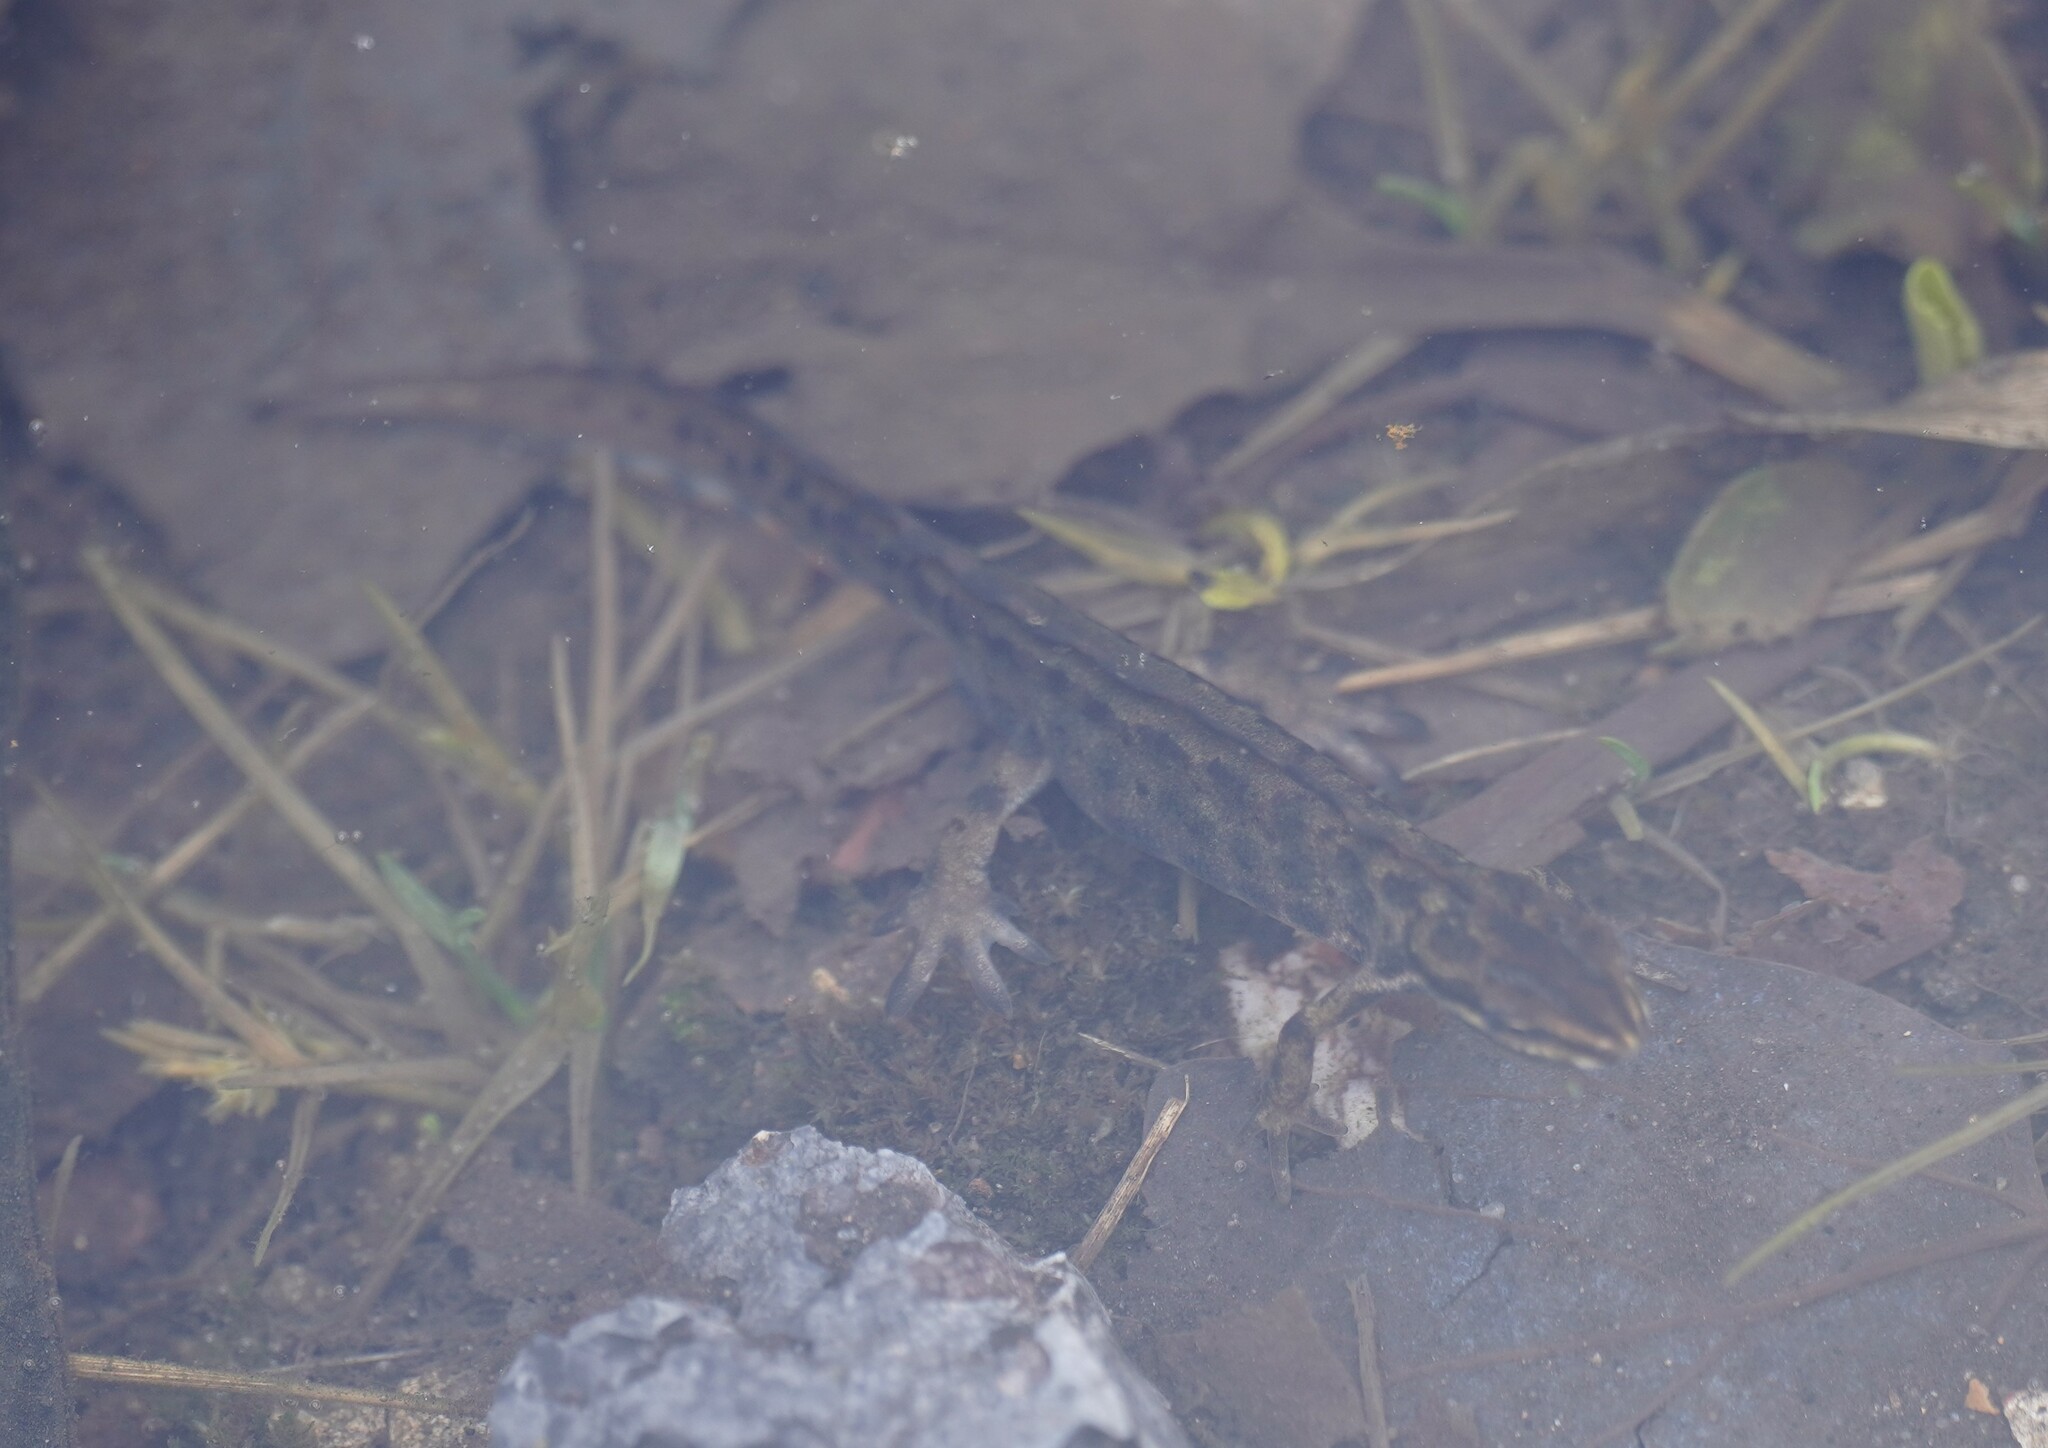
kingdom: Animalia
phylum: Chordata
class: Amphibia
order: Caudata
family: Salamandridae
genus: Lissotriton
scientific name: Lissotriton vulgaris
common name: Smooth newt
